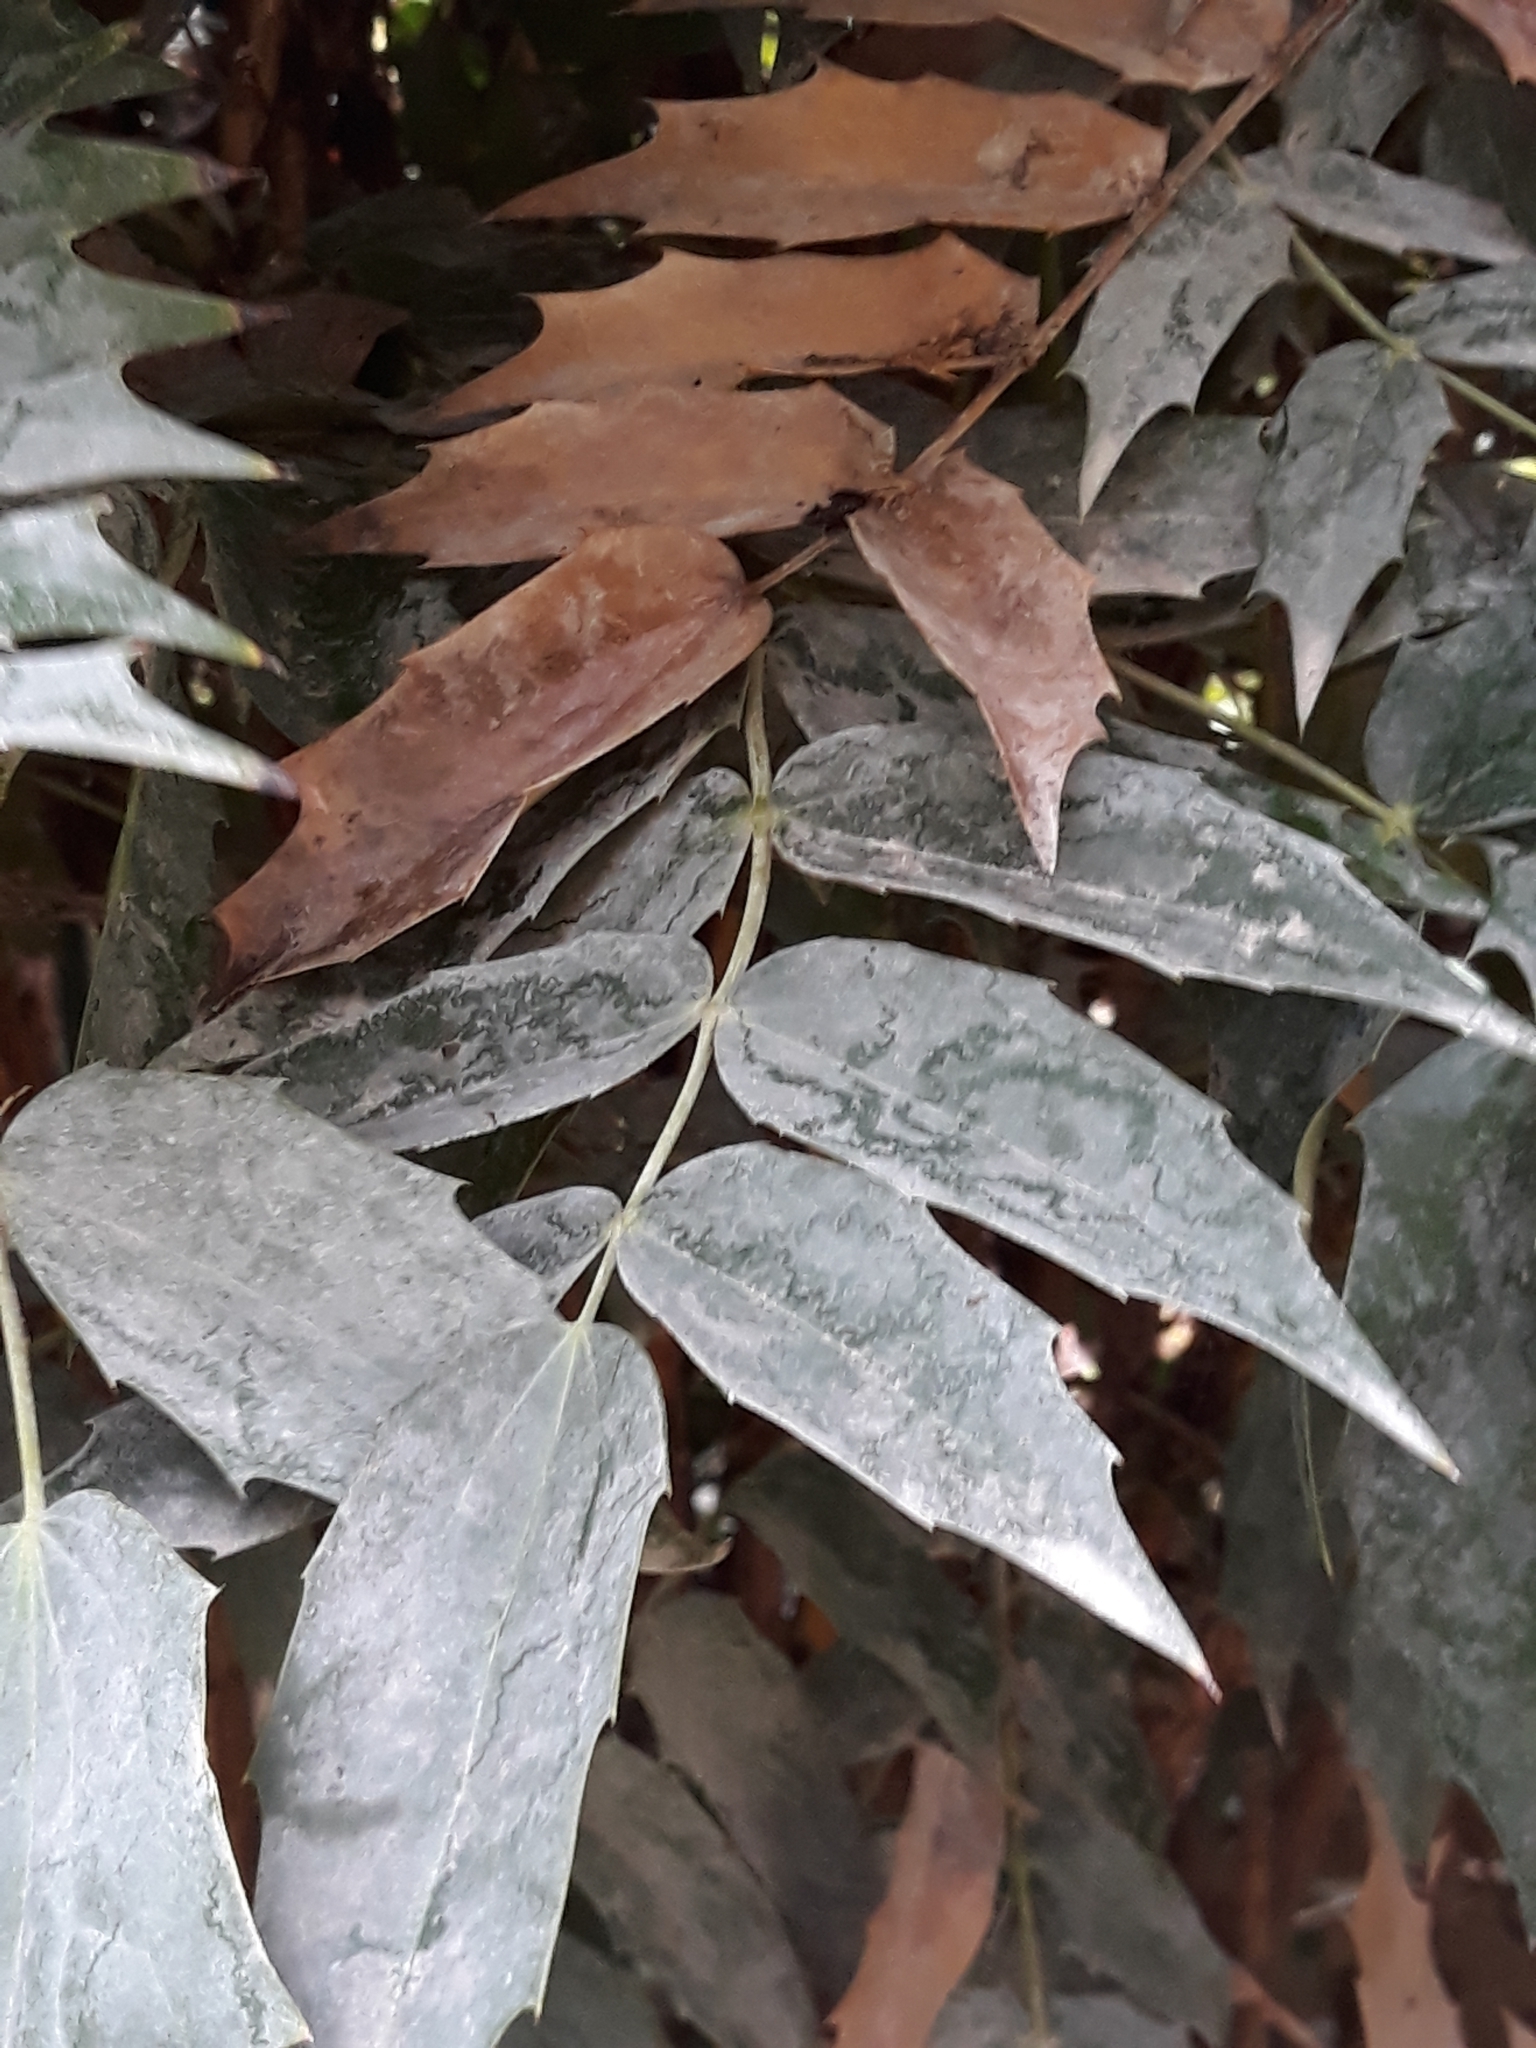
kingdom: Plantae
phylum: Tracheophyta
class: Magnoliopsida
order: Ranunculales
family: Berberidaceae
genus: Mahonia
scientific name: Mahonia aquifolium
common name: Oregon-grape
